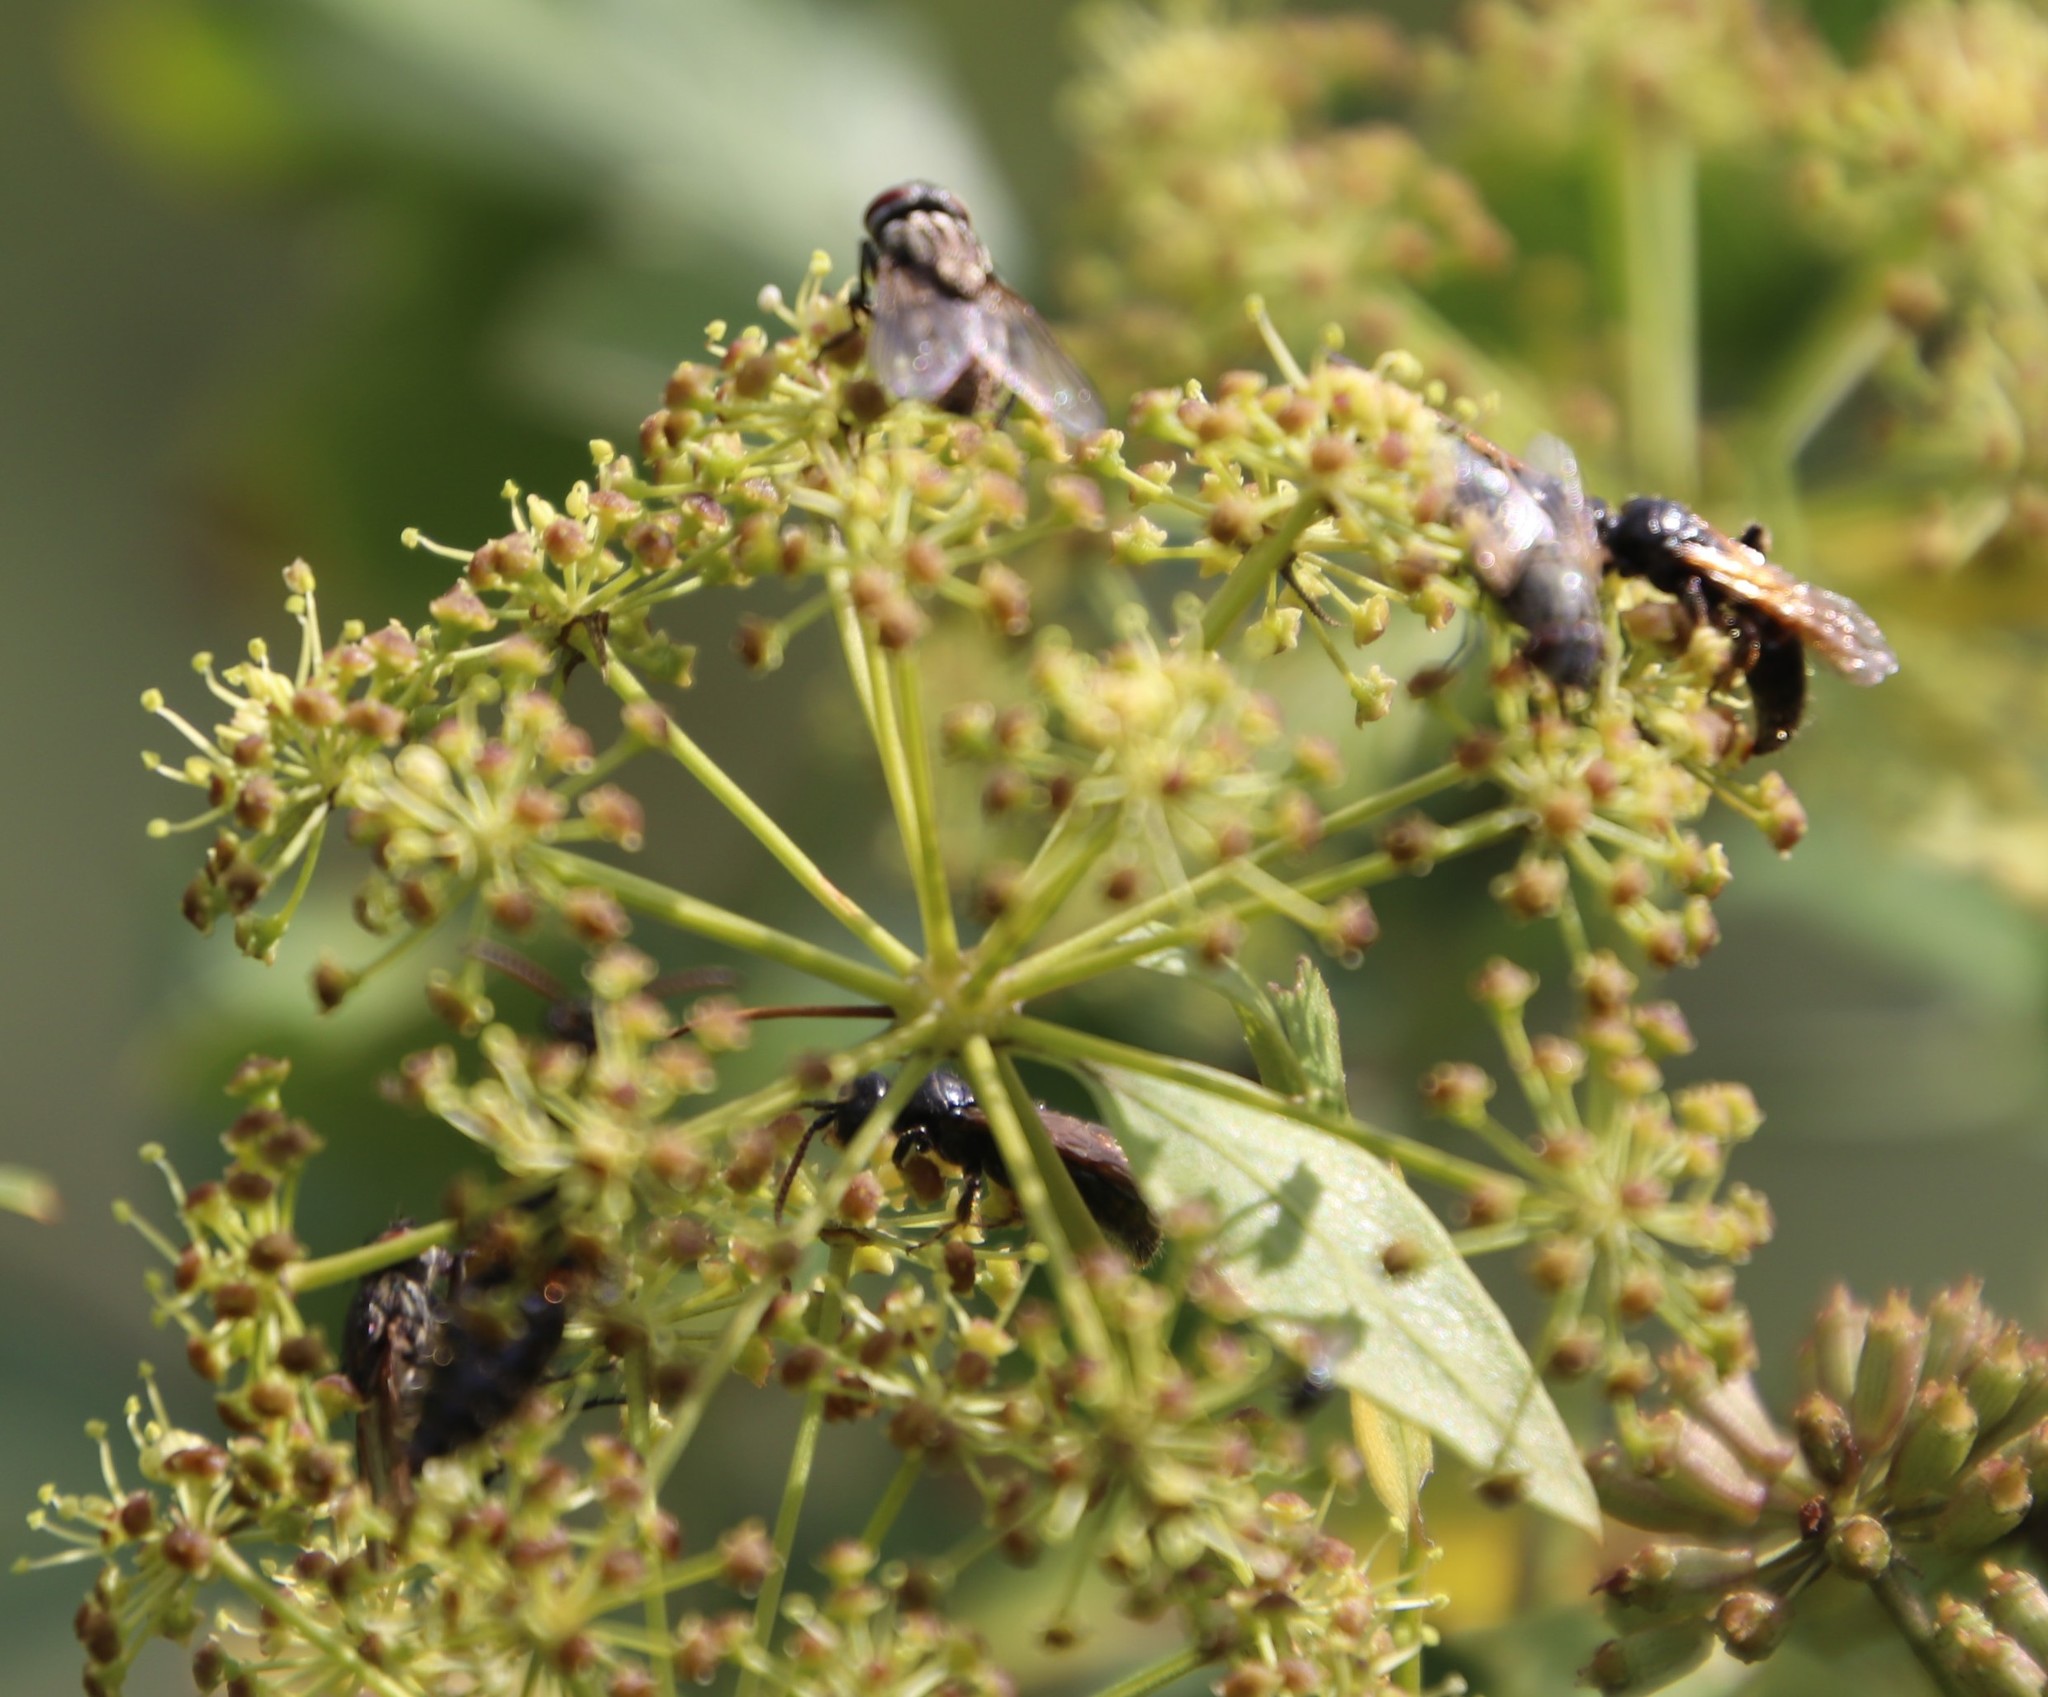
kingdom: Plantae
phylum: Tracheophyta
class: Magnoliopsida
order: Apiales
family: Apiaceae
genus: Polemannia
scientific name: Polemannia montana
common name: Mountain false parsley-tree
